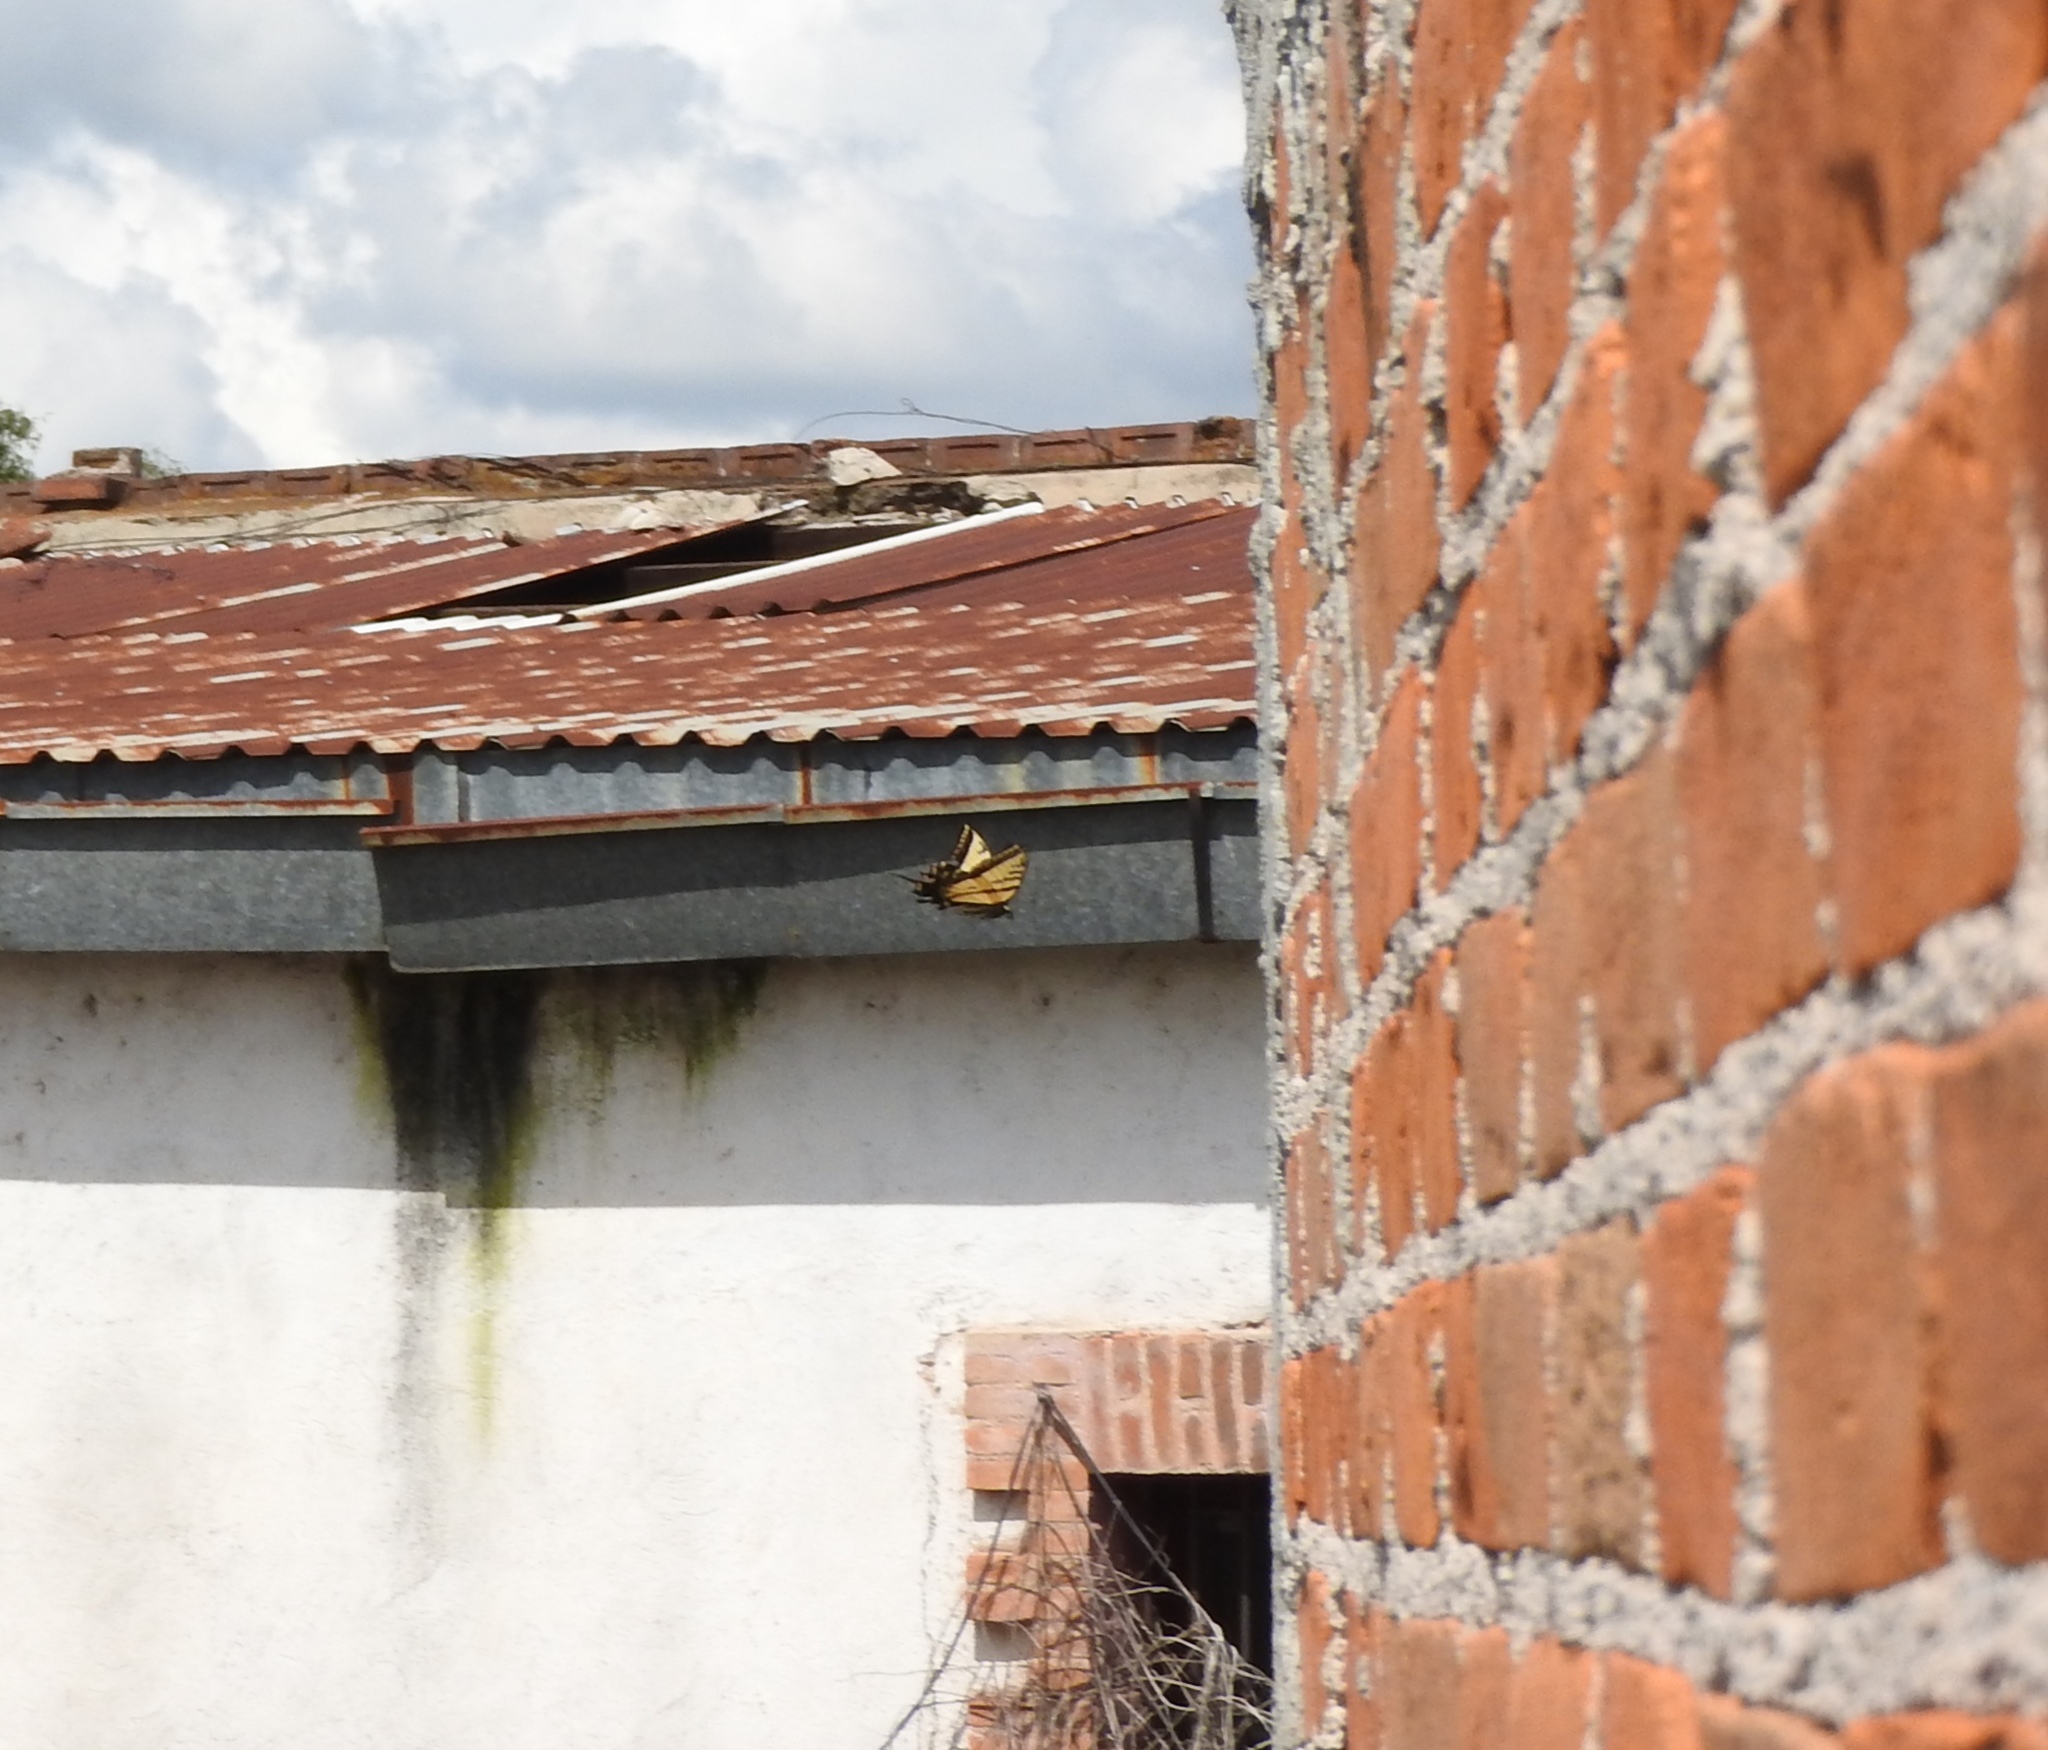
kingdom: Animalia
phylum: Arthropoda
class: Insecta
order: Lepidoptera
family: Papilionidae
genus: Papilio
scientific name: Papilio multicaudata
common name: Two-tailed tiger swallowtail
